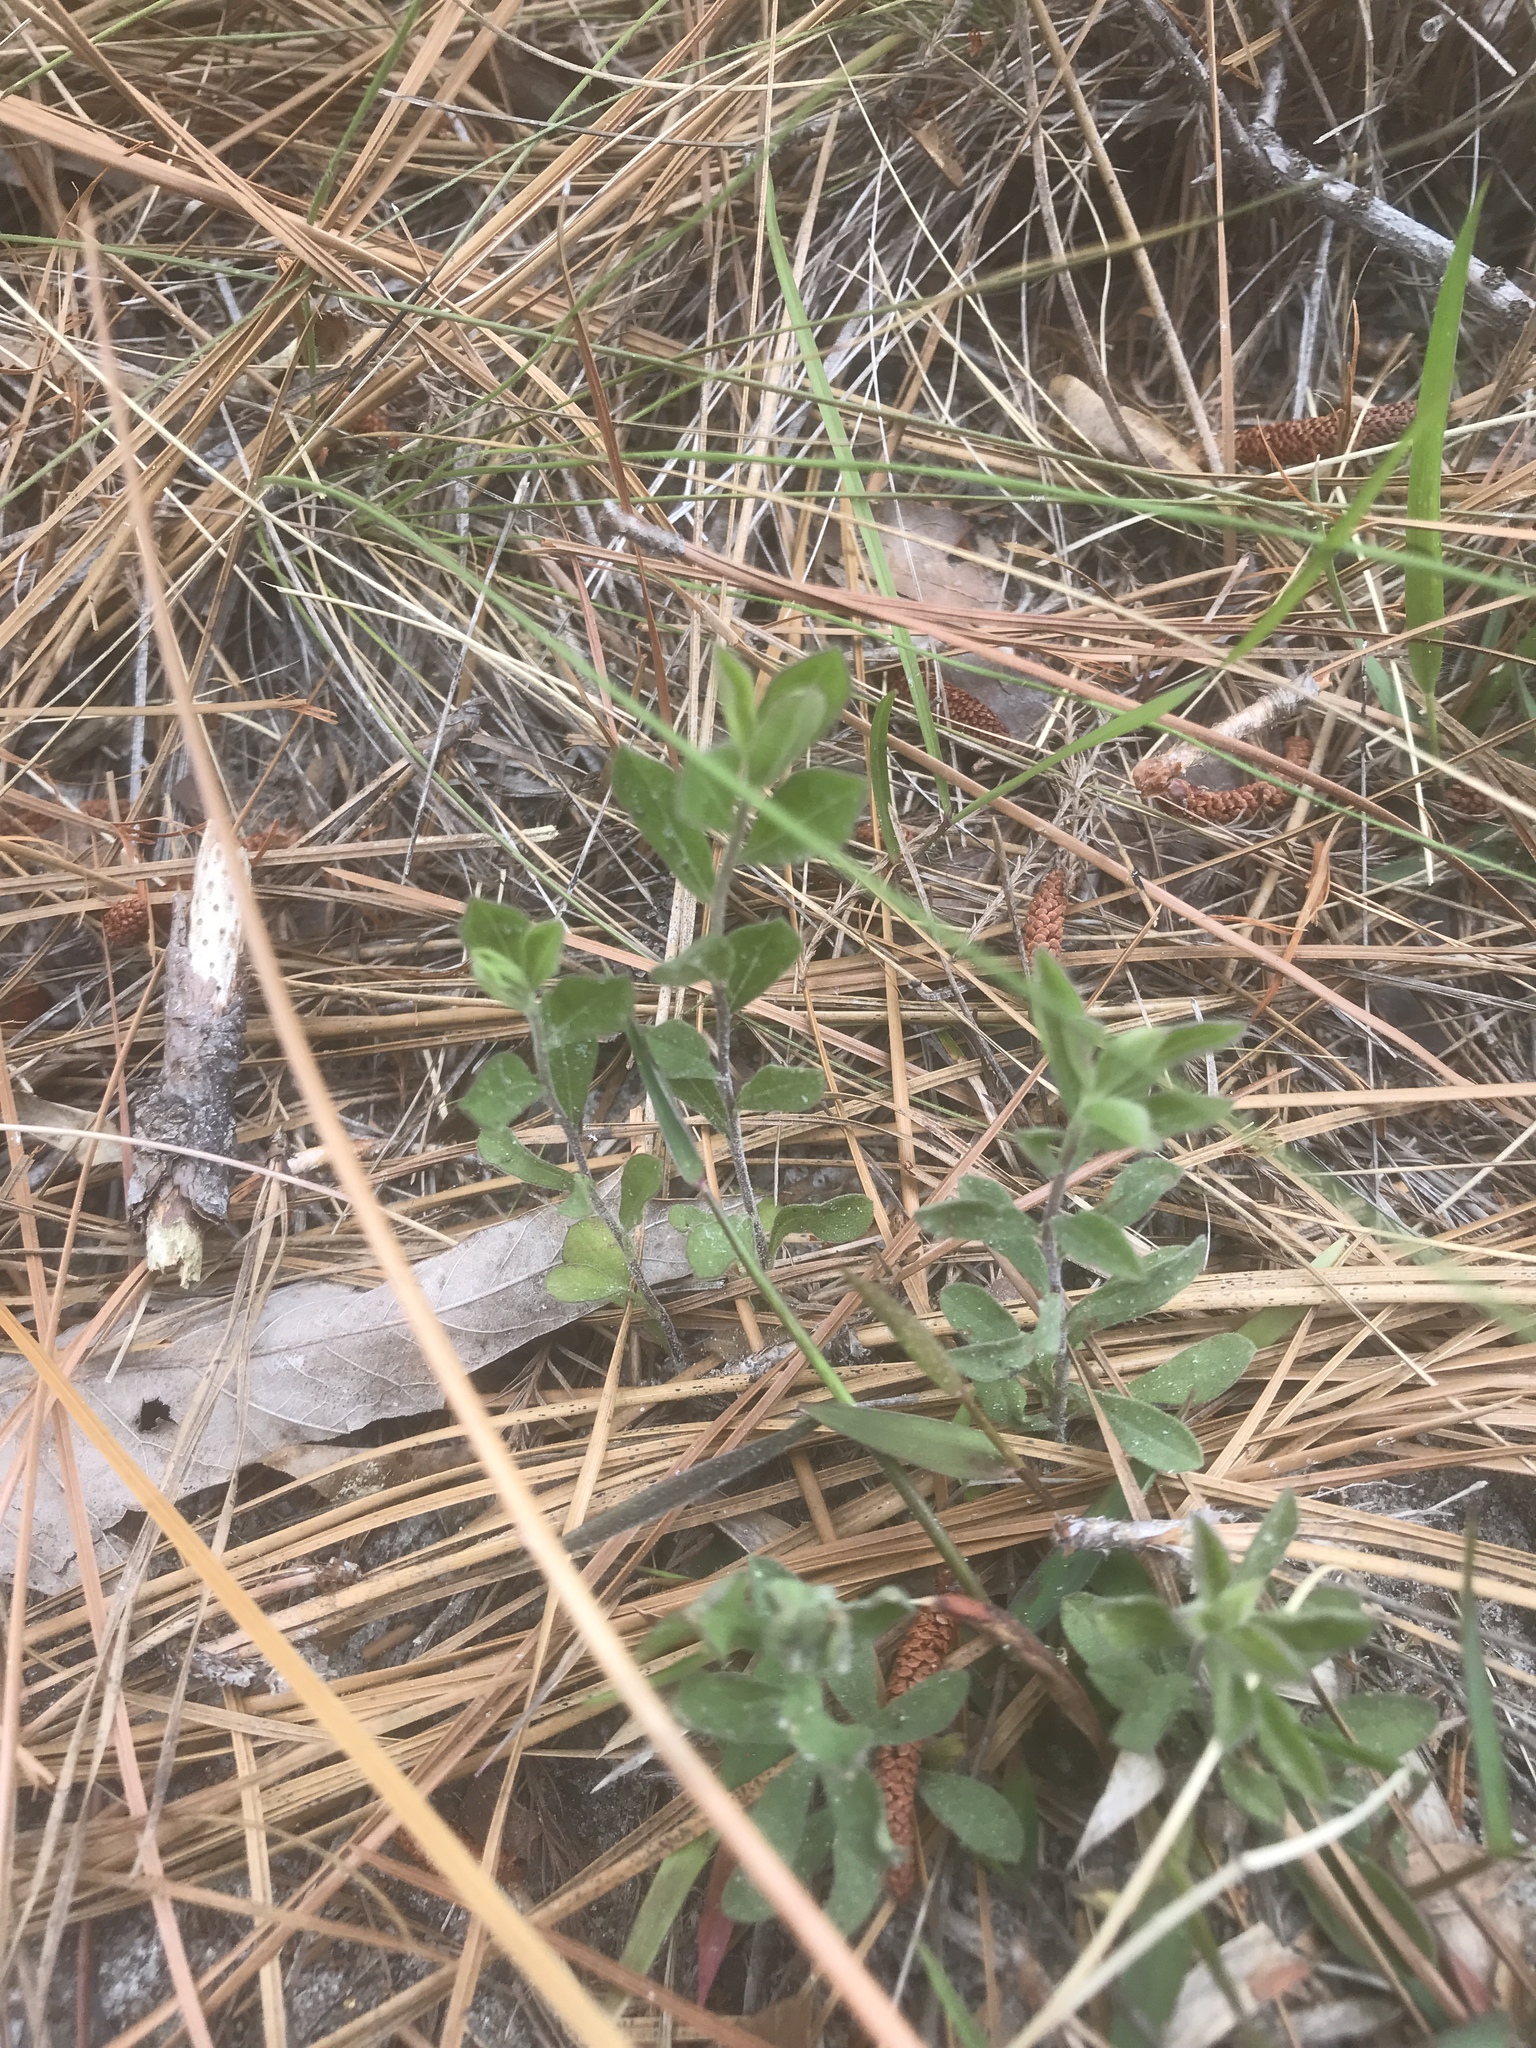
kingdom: Plantae
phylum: Tracheophyta
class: Magnoliopsida
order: Asterales
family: Asteraceae
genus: Sericocarpus
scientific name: Sericocarpus tortifolius
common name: Dixie aster
